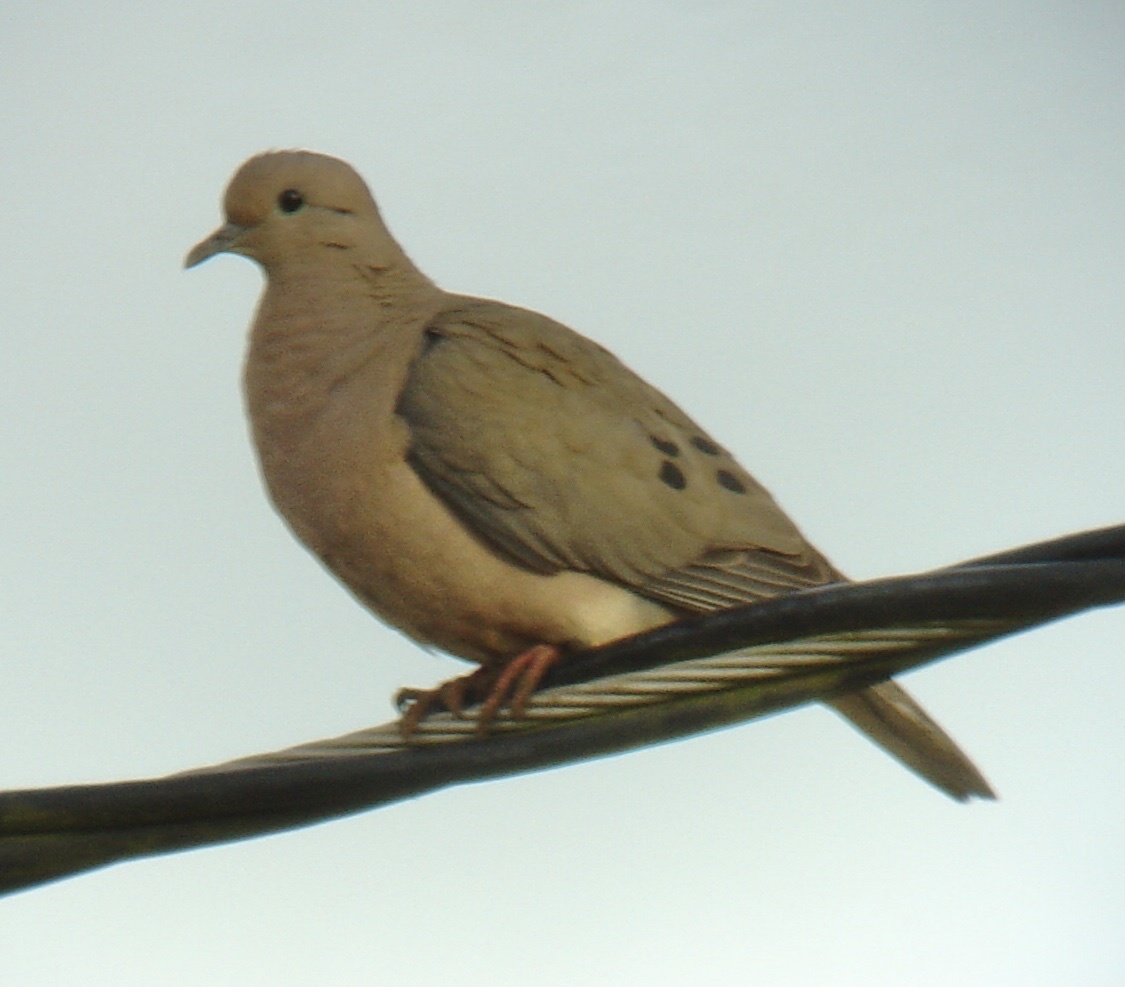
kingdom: Animalia
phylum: Chordata
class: Aves
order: Columbiformes
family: Columbidae
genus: Zenaida
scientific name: Zenaida auriculata
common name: Eared dove
